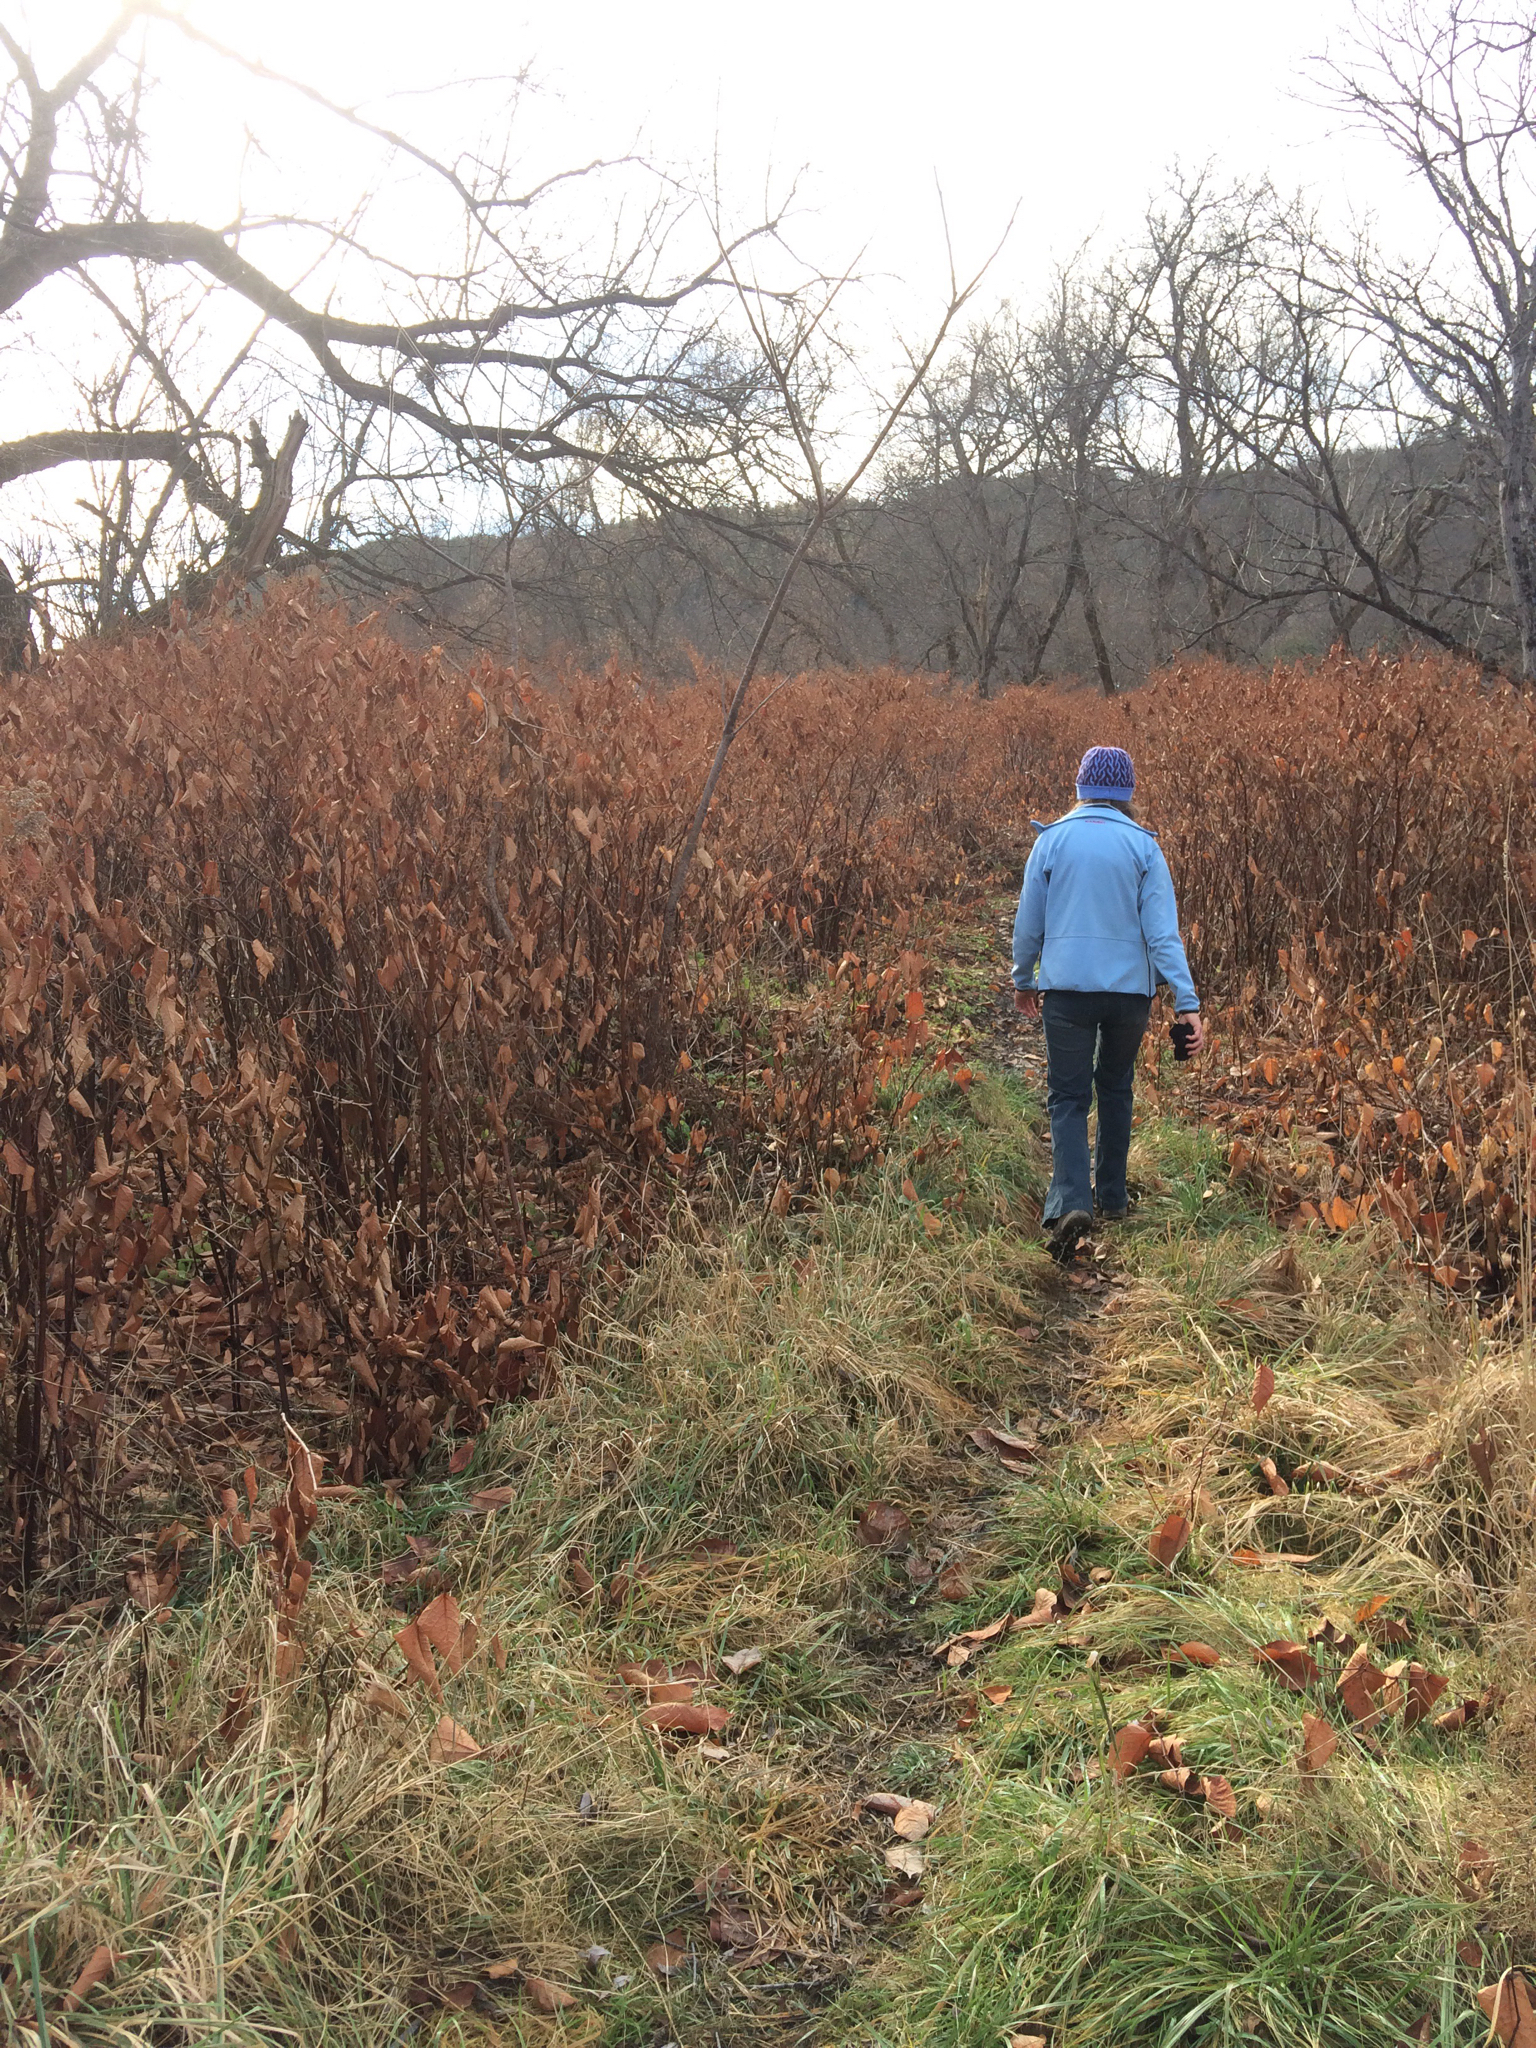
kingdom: Plantae
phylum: Tracheophyta
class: Magnoliopsida
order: Caryophyllales
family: Polygonaceae
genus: Reynoutria
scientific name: Reynoutria japonica
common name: Japanese knotweed
